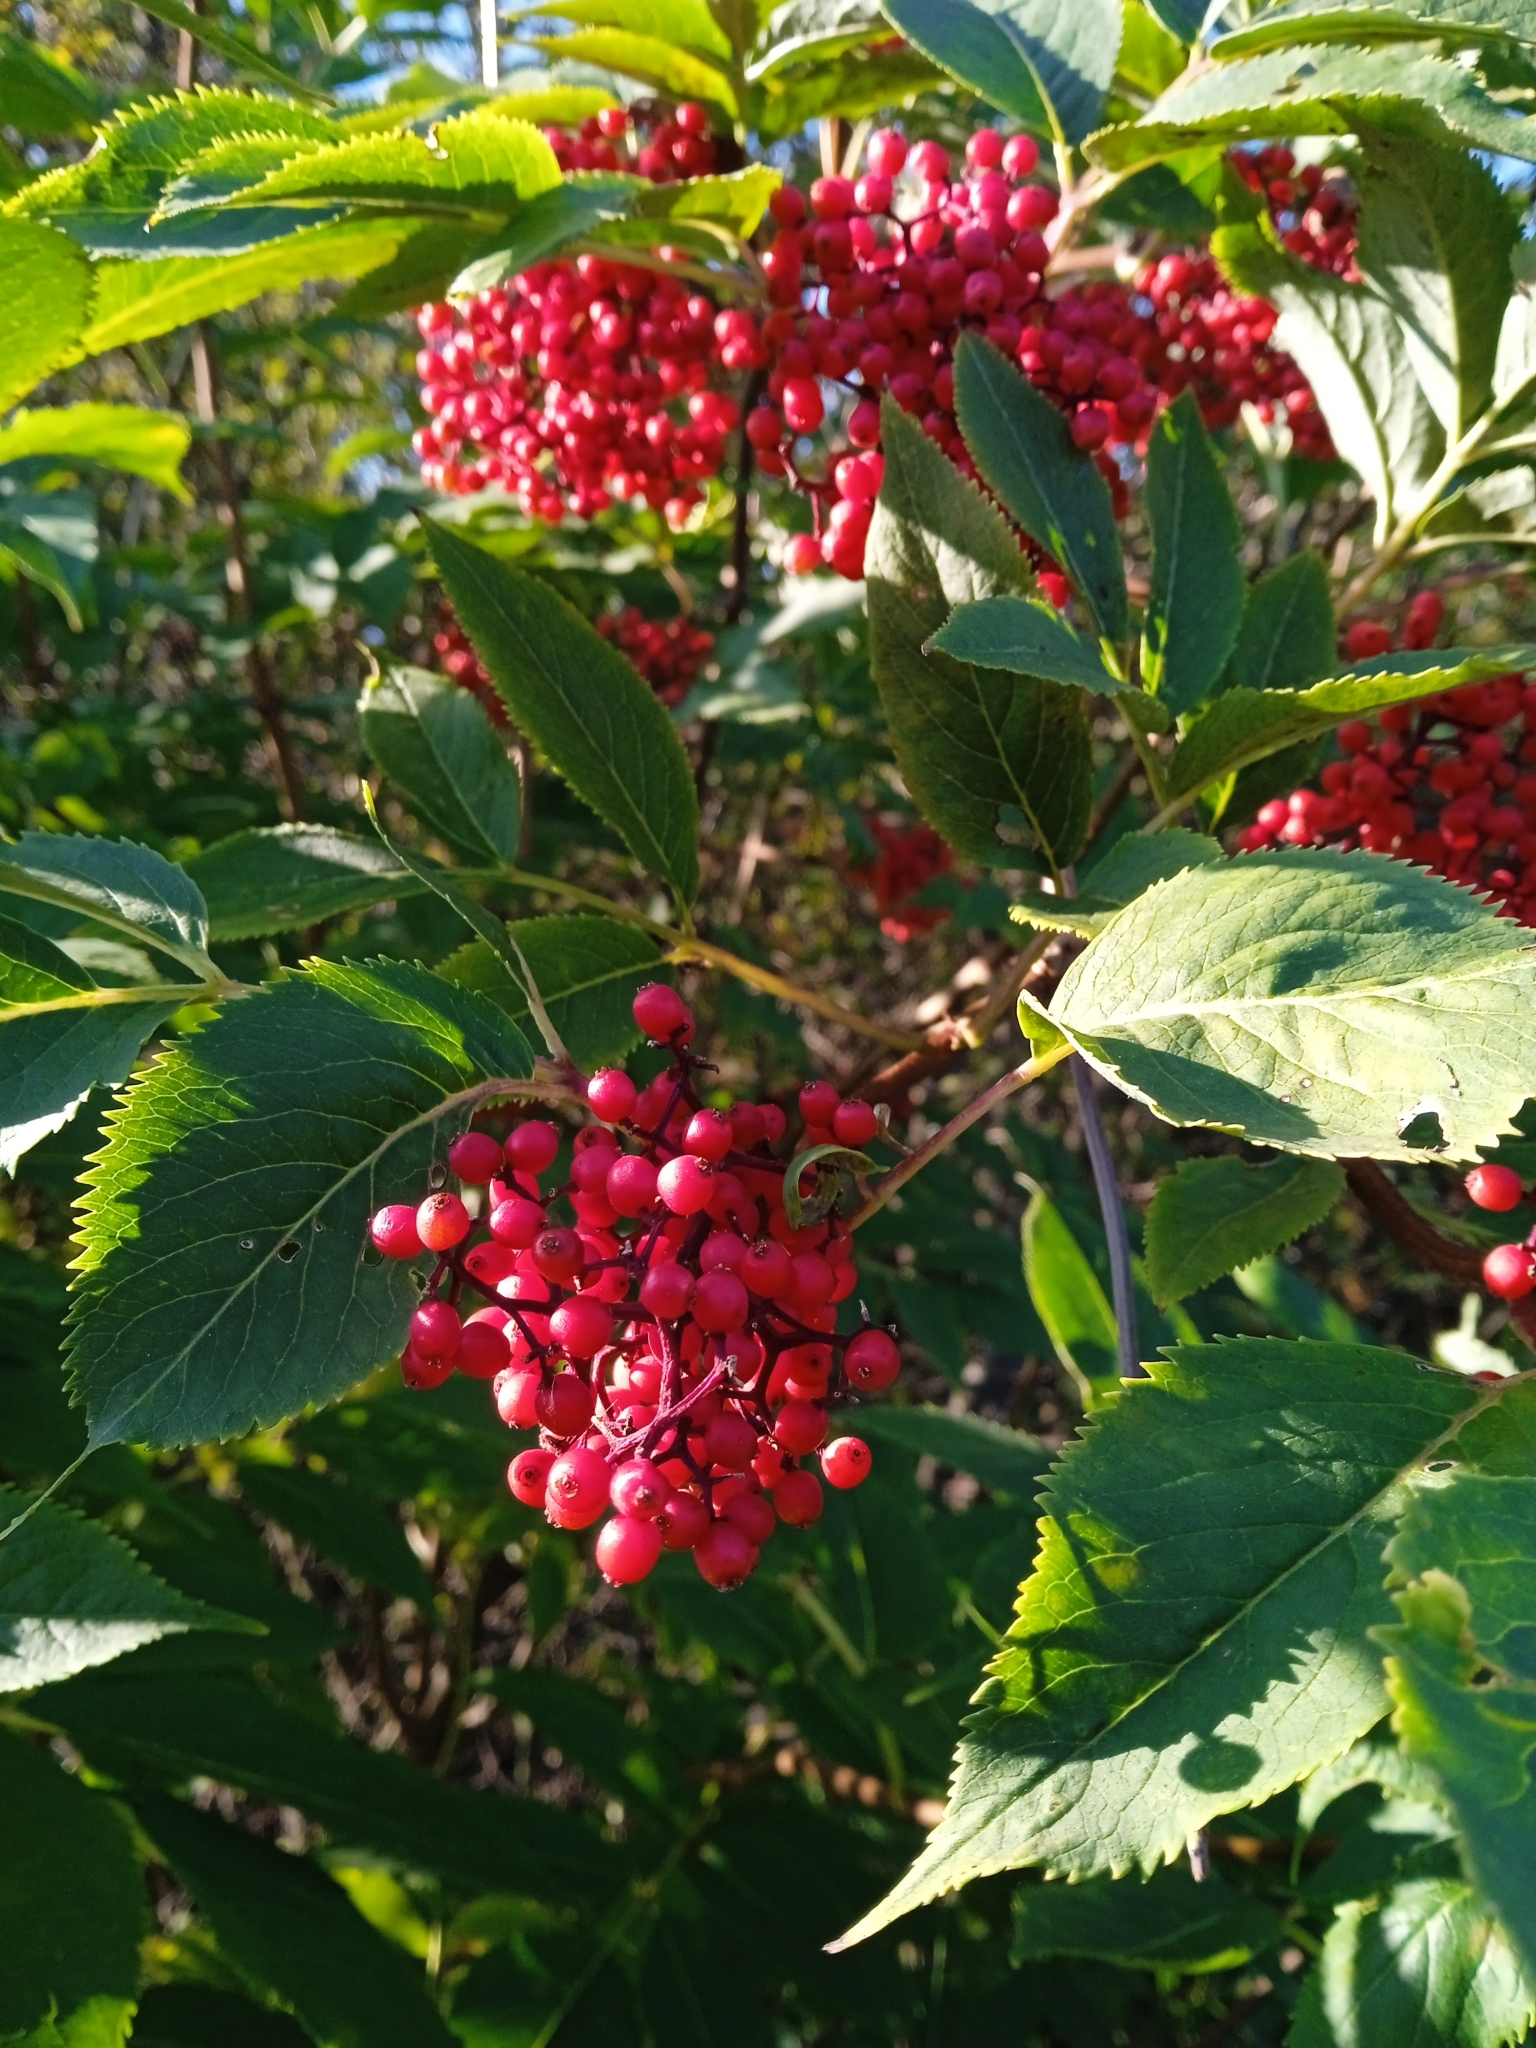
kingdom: Plantae
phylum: Tracheophyta
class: Magnoliopsida
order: Dipsacales
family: Viburnaceae
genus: Sambucus
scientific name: Sambucus racemosa
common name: Red-berried elder
